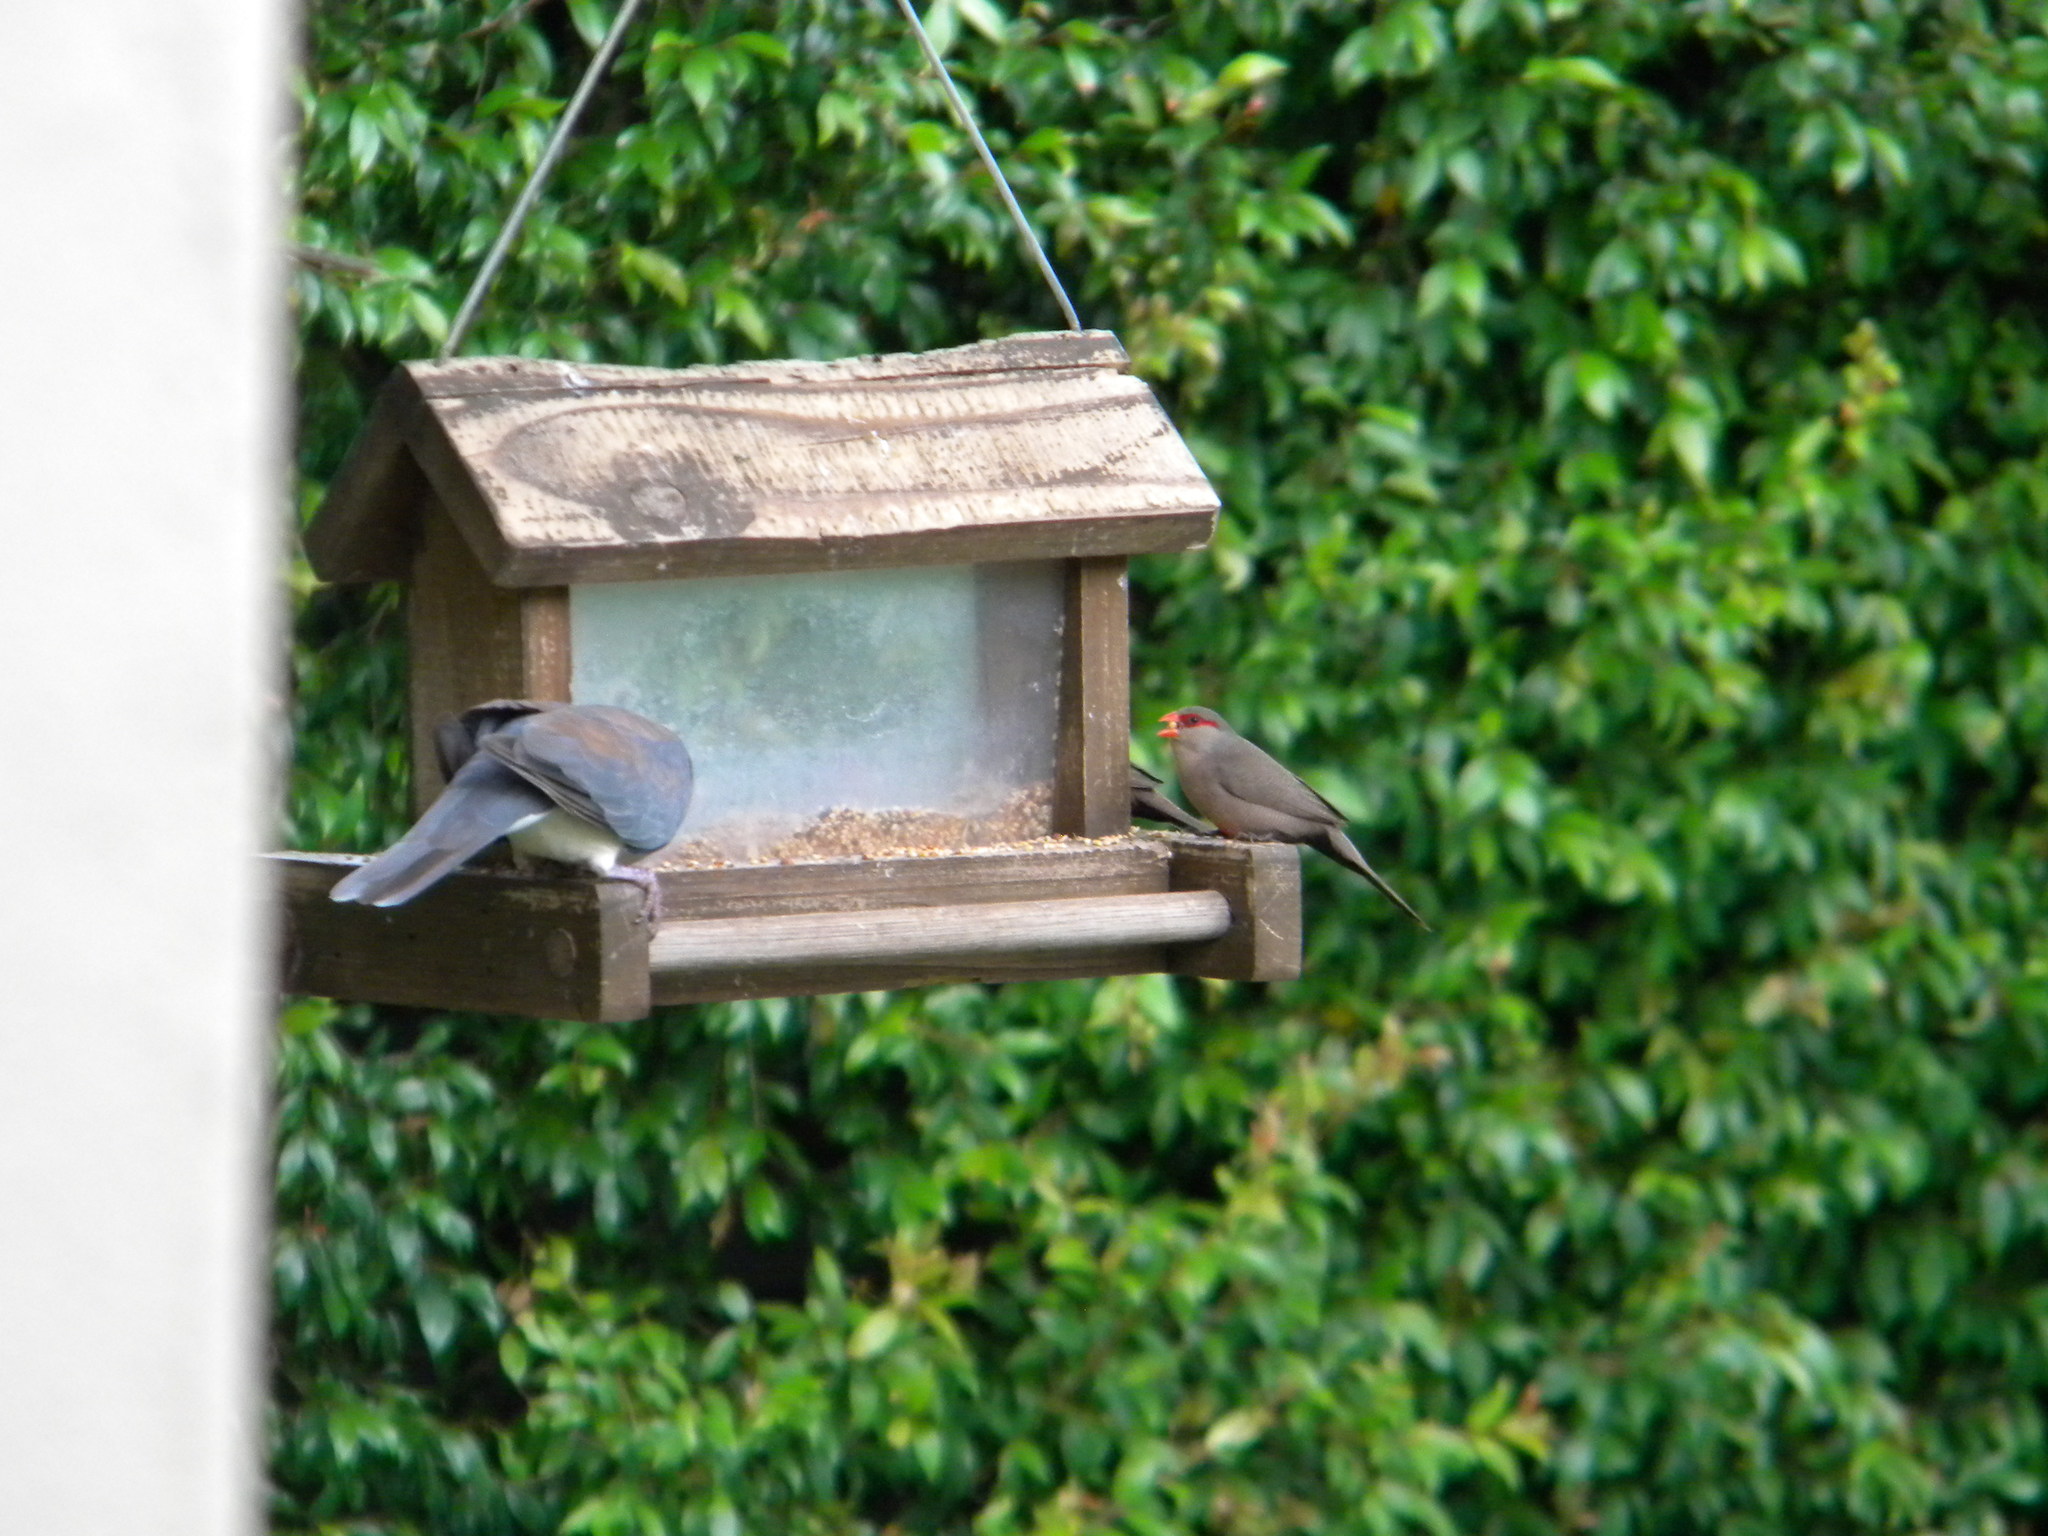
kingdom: Animalia
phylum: Chordata
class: Aves
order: Passeriformes
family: Estrildidae
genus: Estrilda
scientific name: Estrilda astrild
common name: Common waxbill
